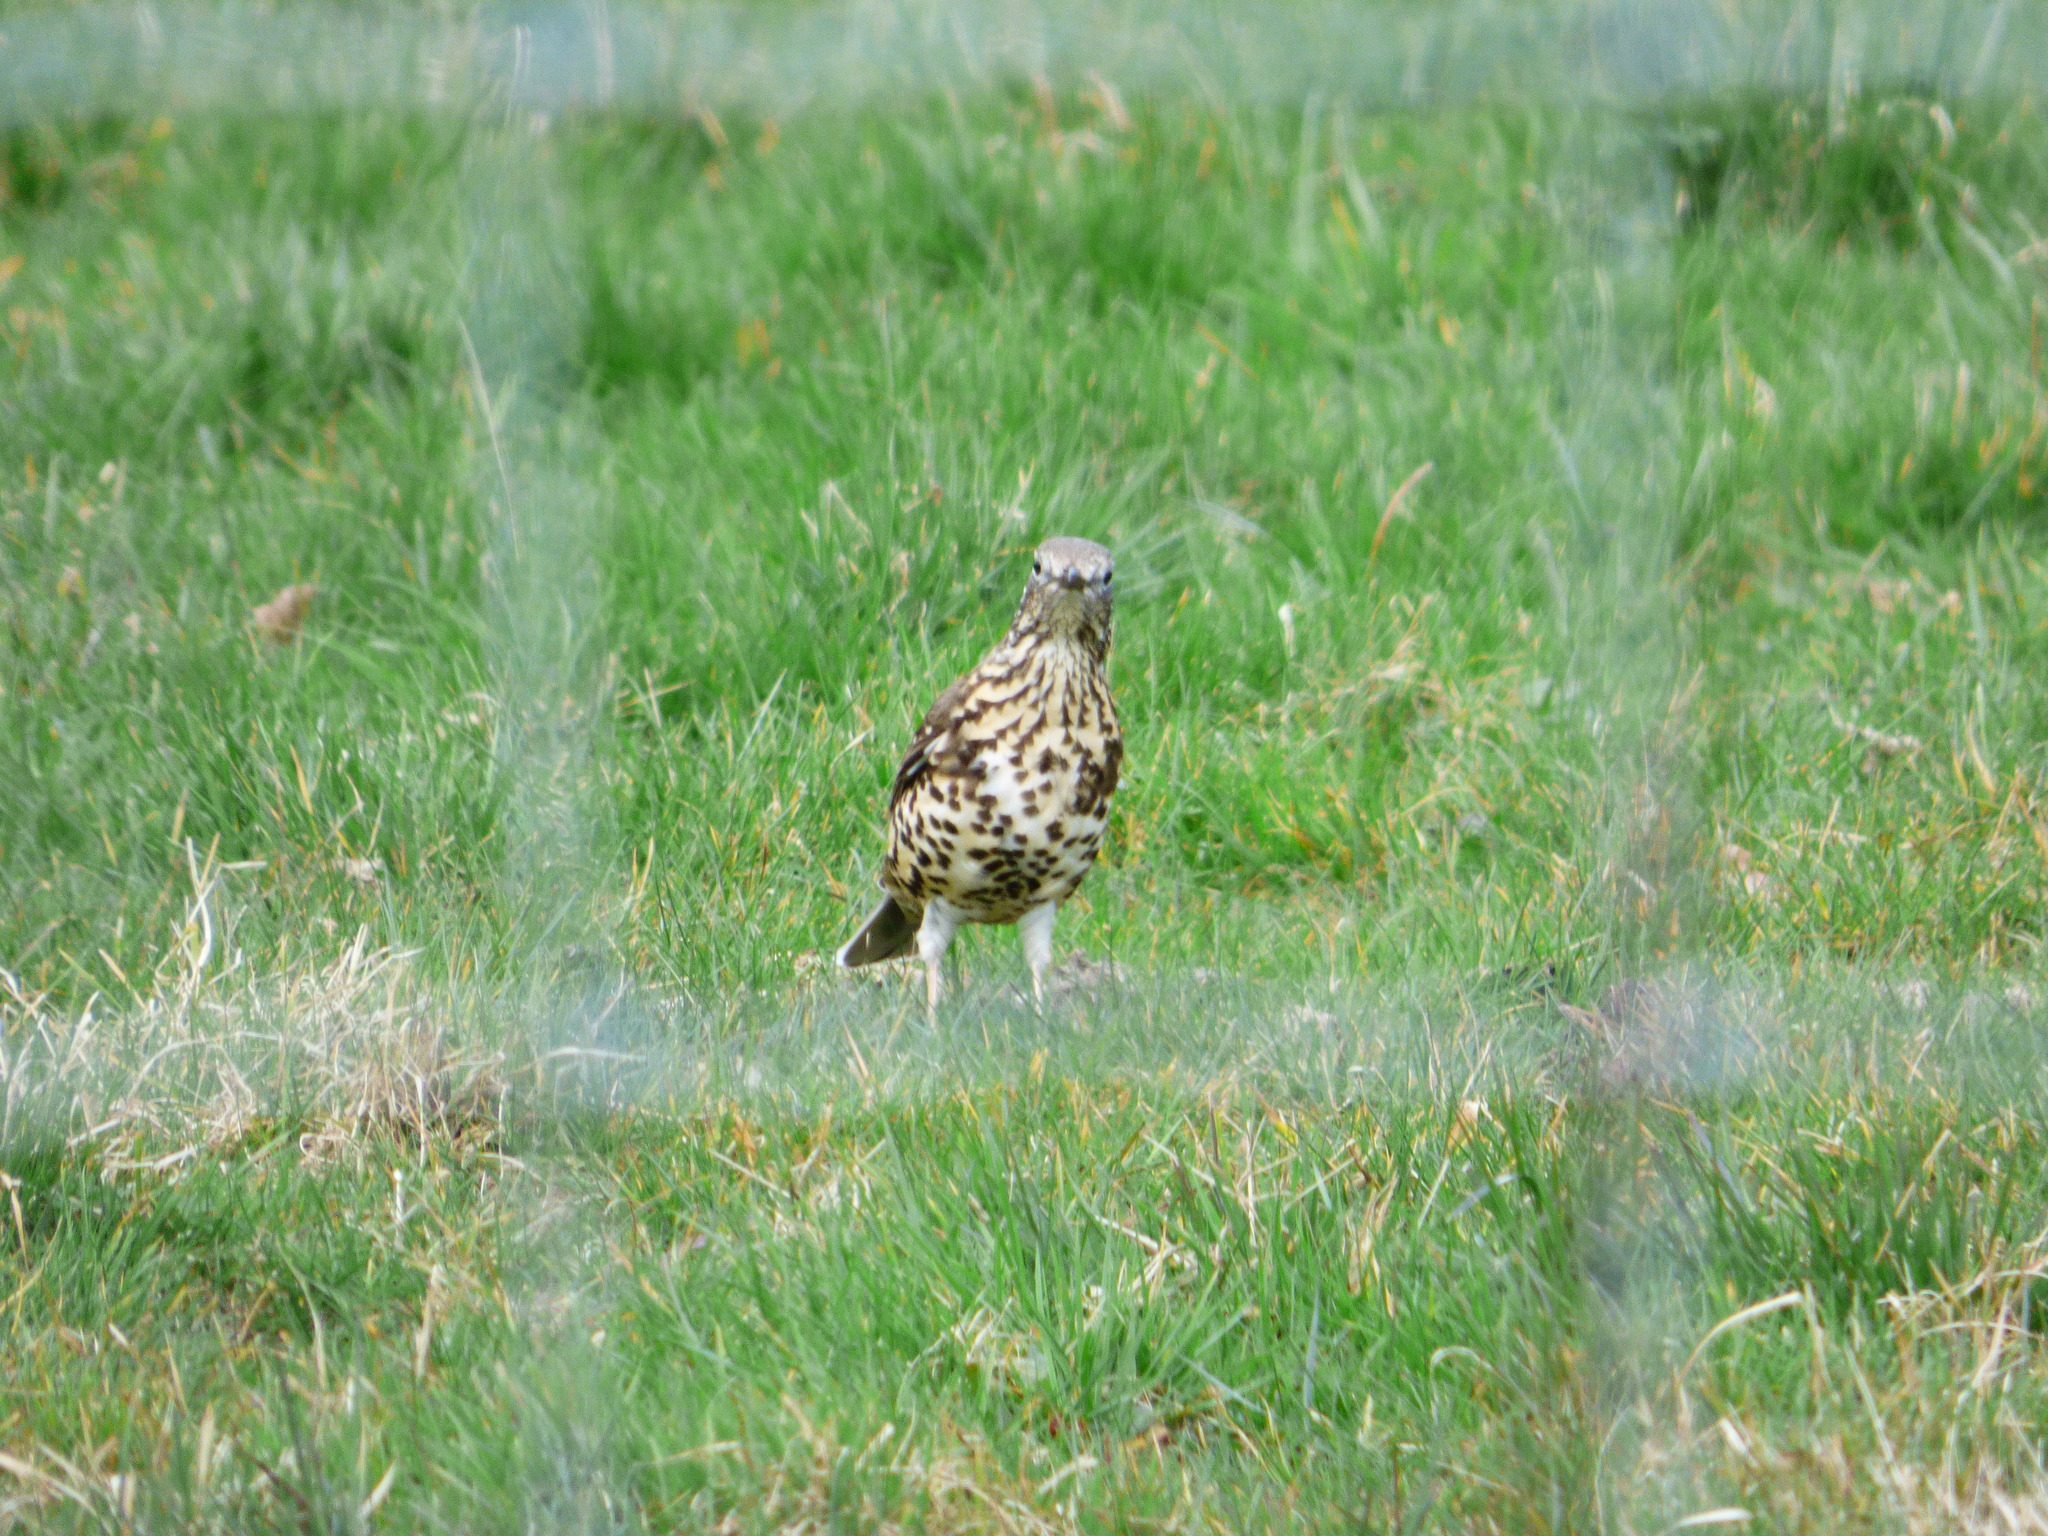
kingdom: Animalia
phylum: Chordata
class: Aves
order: Passeriformes
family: Turdidae
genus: Turdus
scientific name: Turdus viscivorus
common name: Mistle thrush
